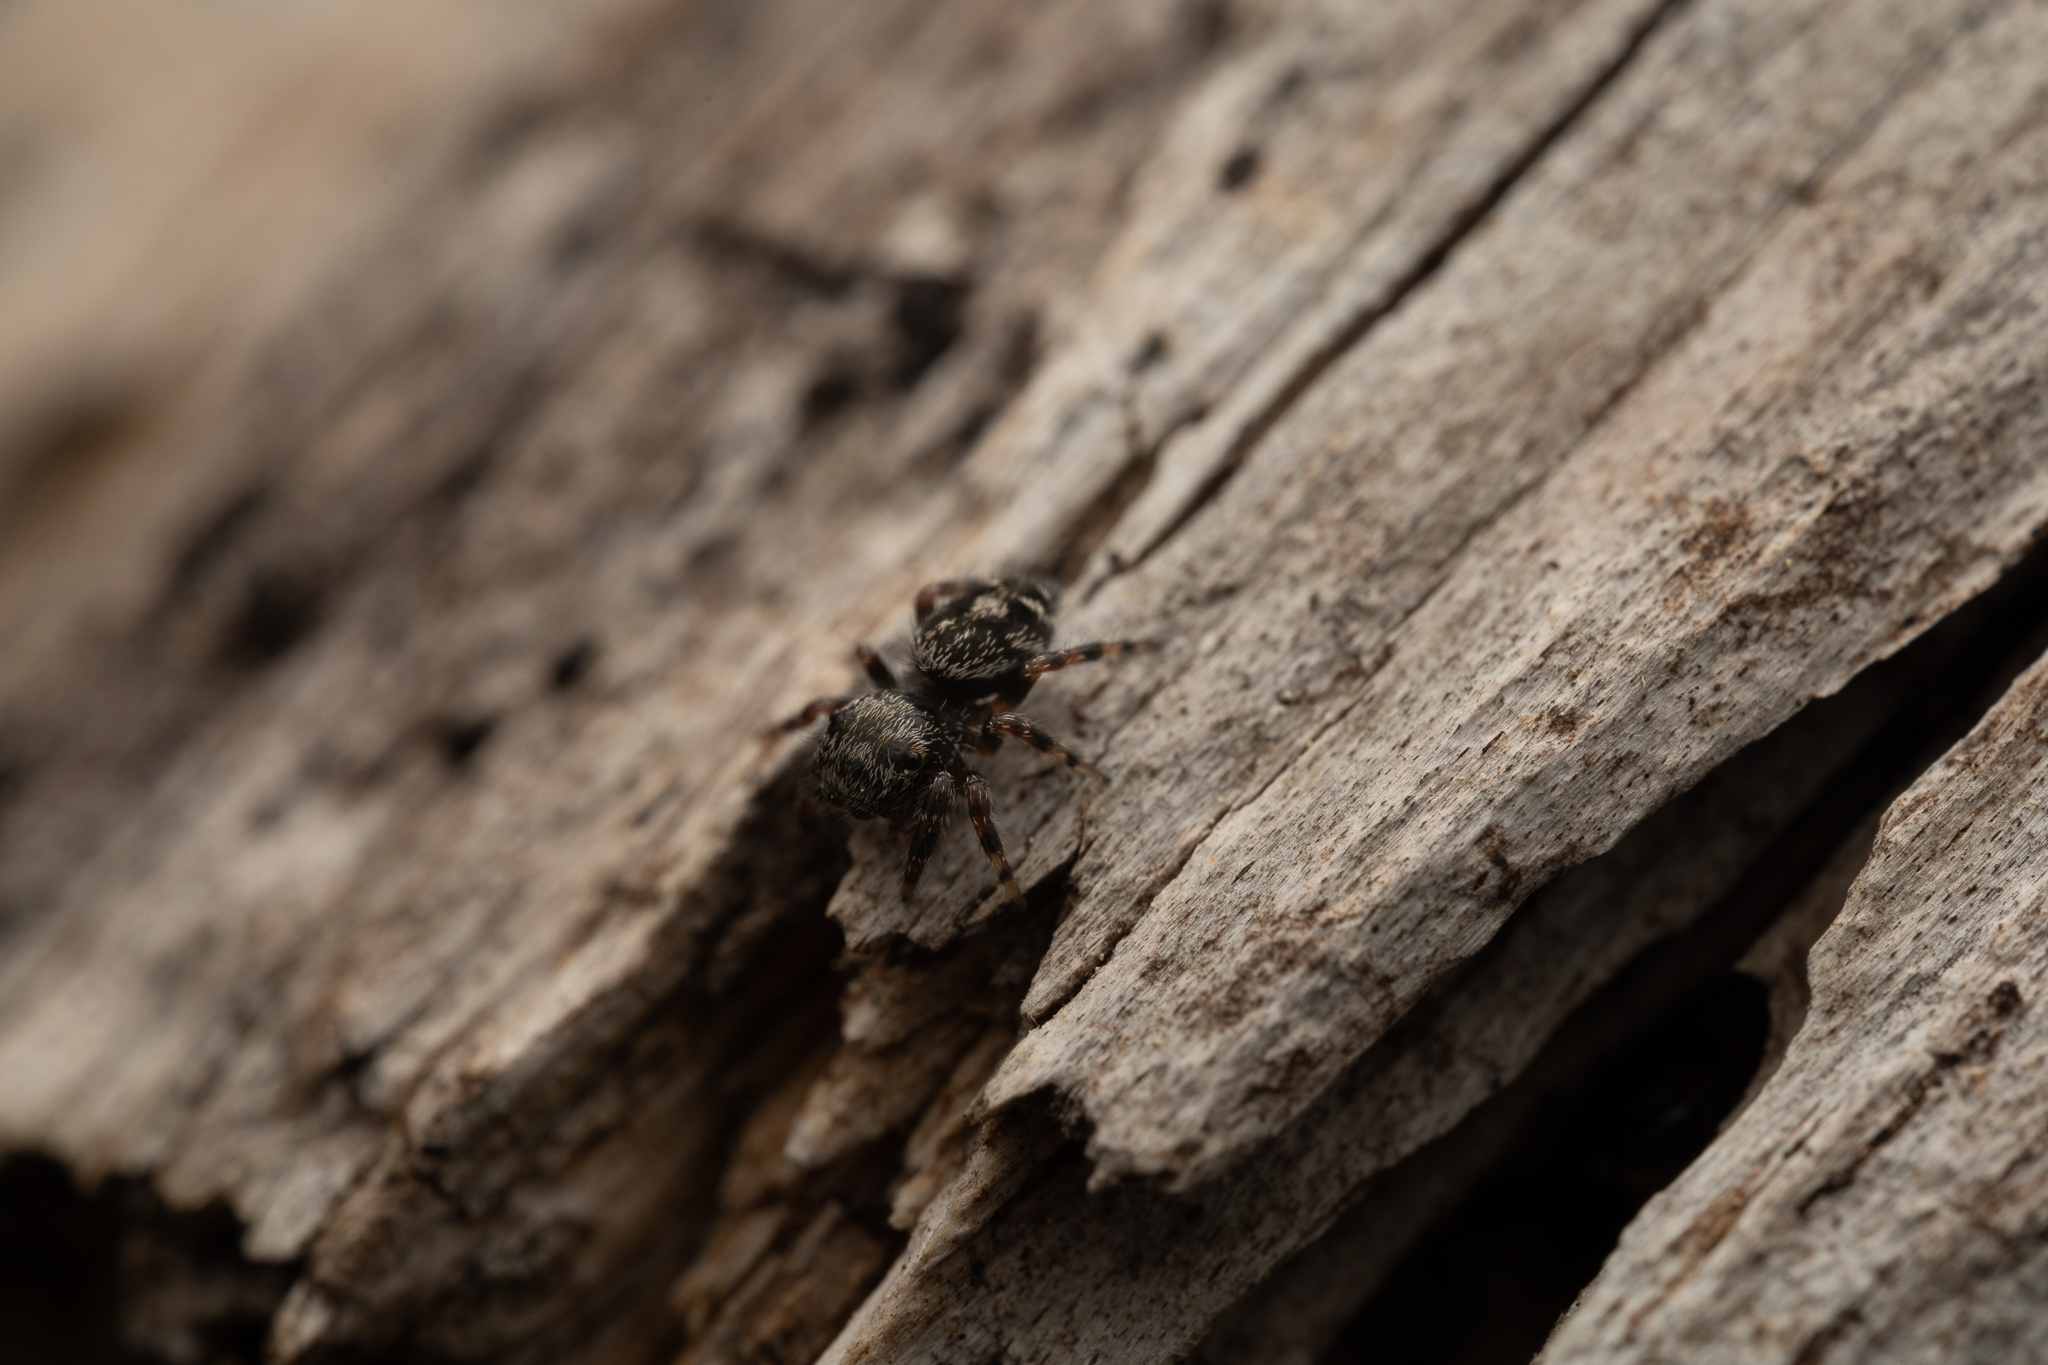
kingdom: Animalia
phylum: Arthropoda
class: Arachnida
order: Araneae
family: Salticidae
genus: Phidippus
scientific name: Phidippus putnami
